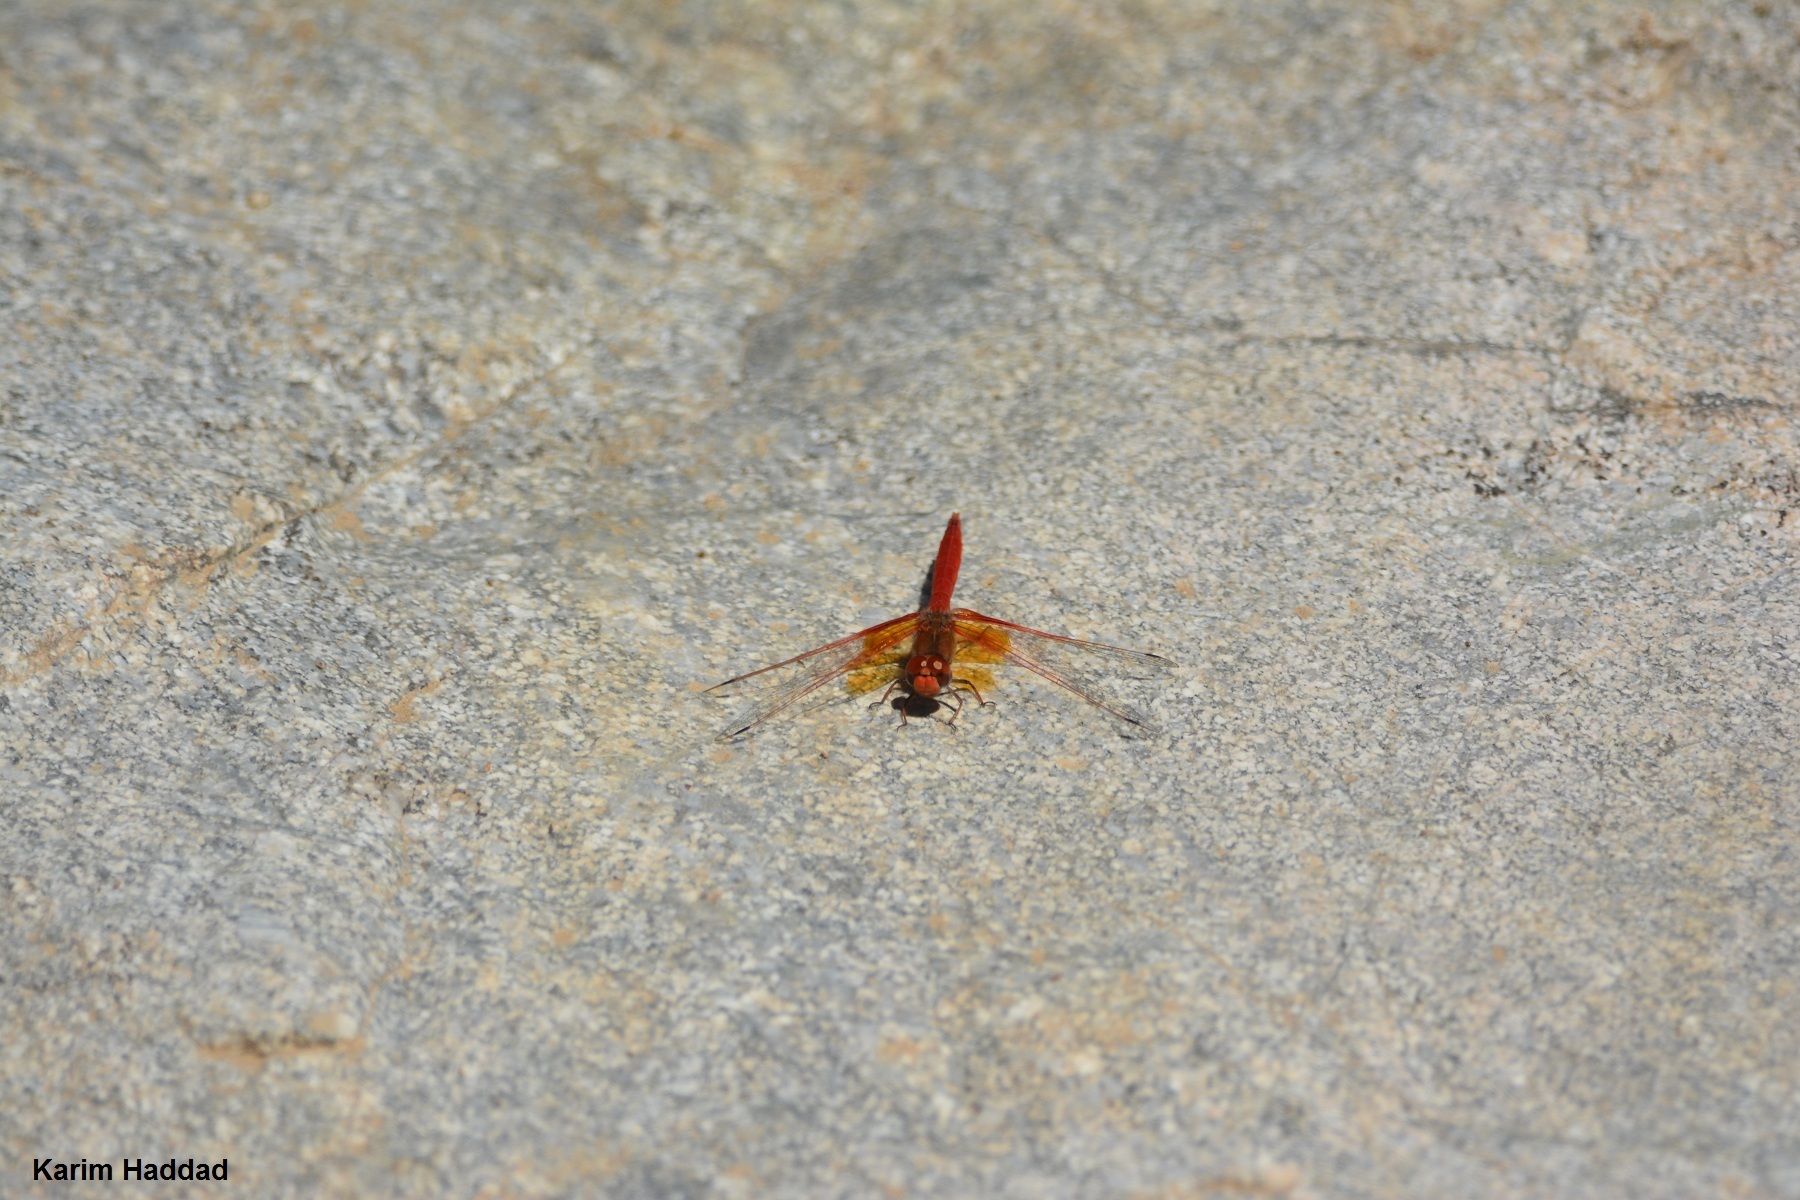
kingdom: Animalia
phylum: Arthropoda
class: Insecta
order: Odonata
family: Libellulidae
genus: Trithemis
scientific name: Trithemis kirbyi
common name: Kirby's dropwing
